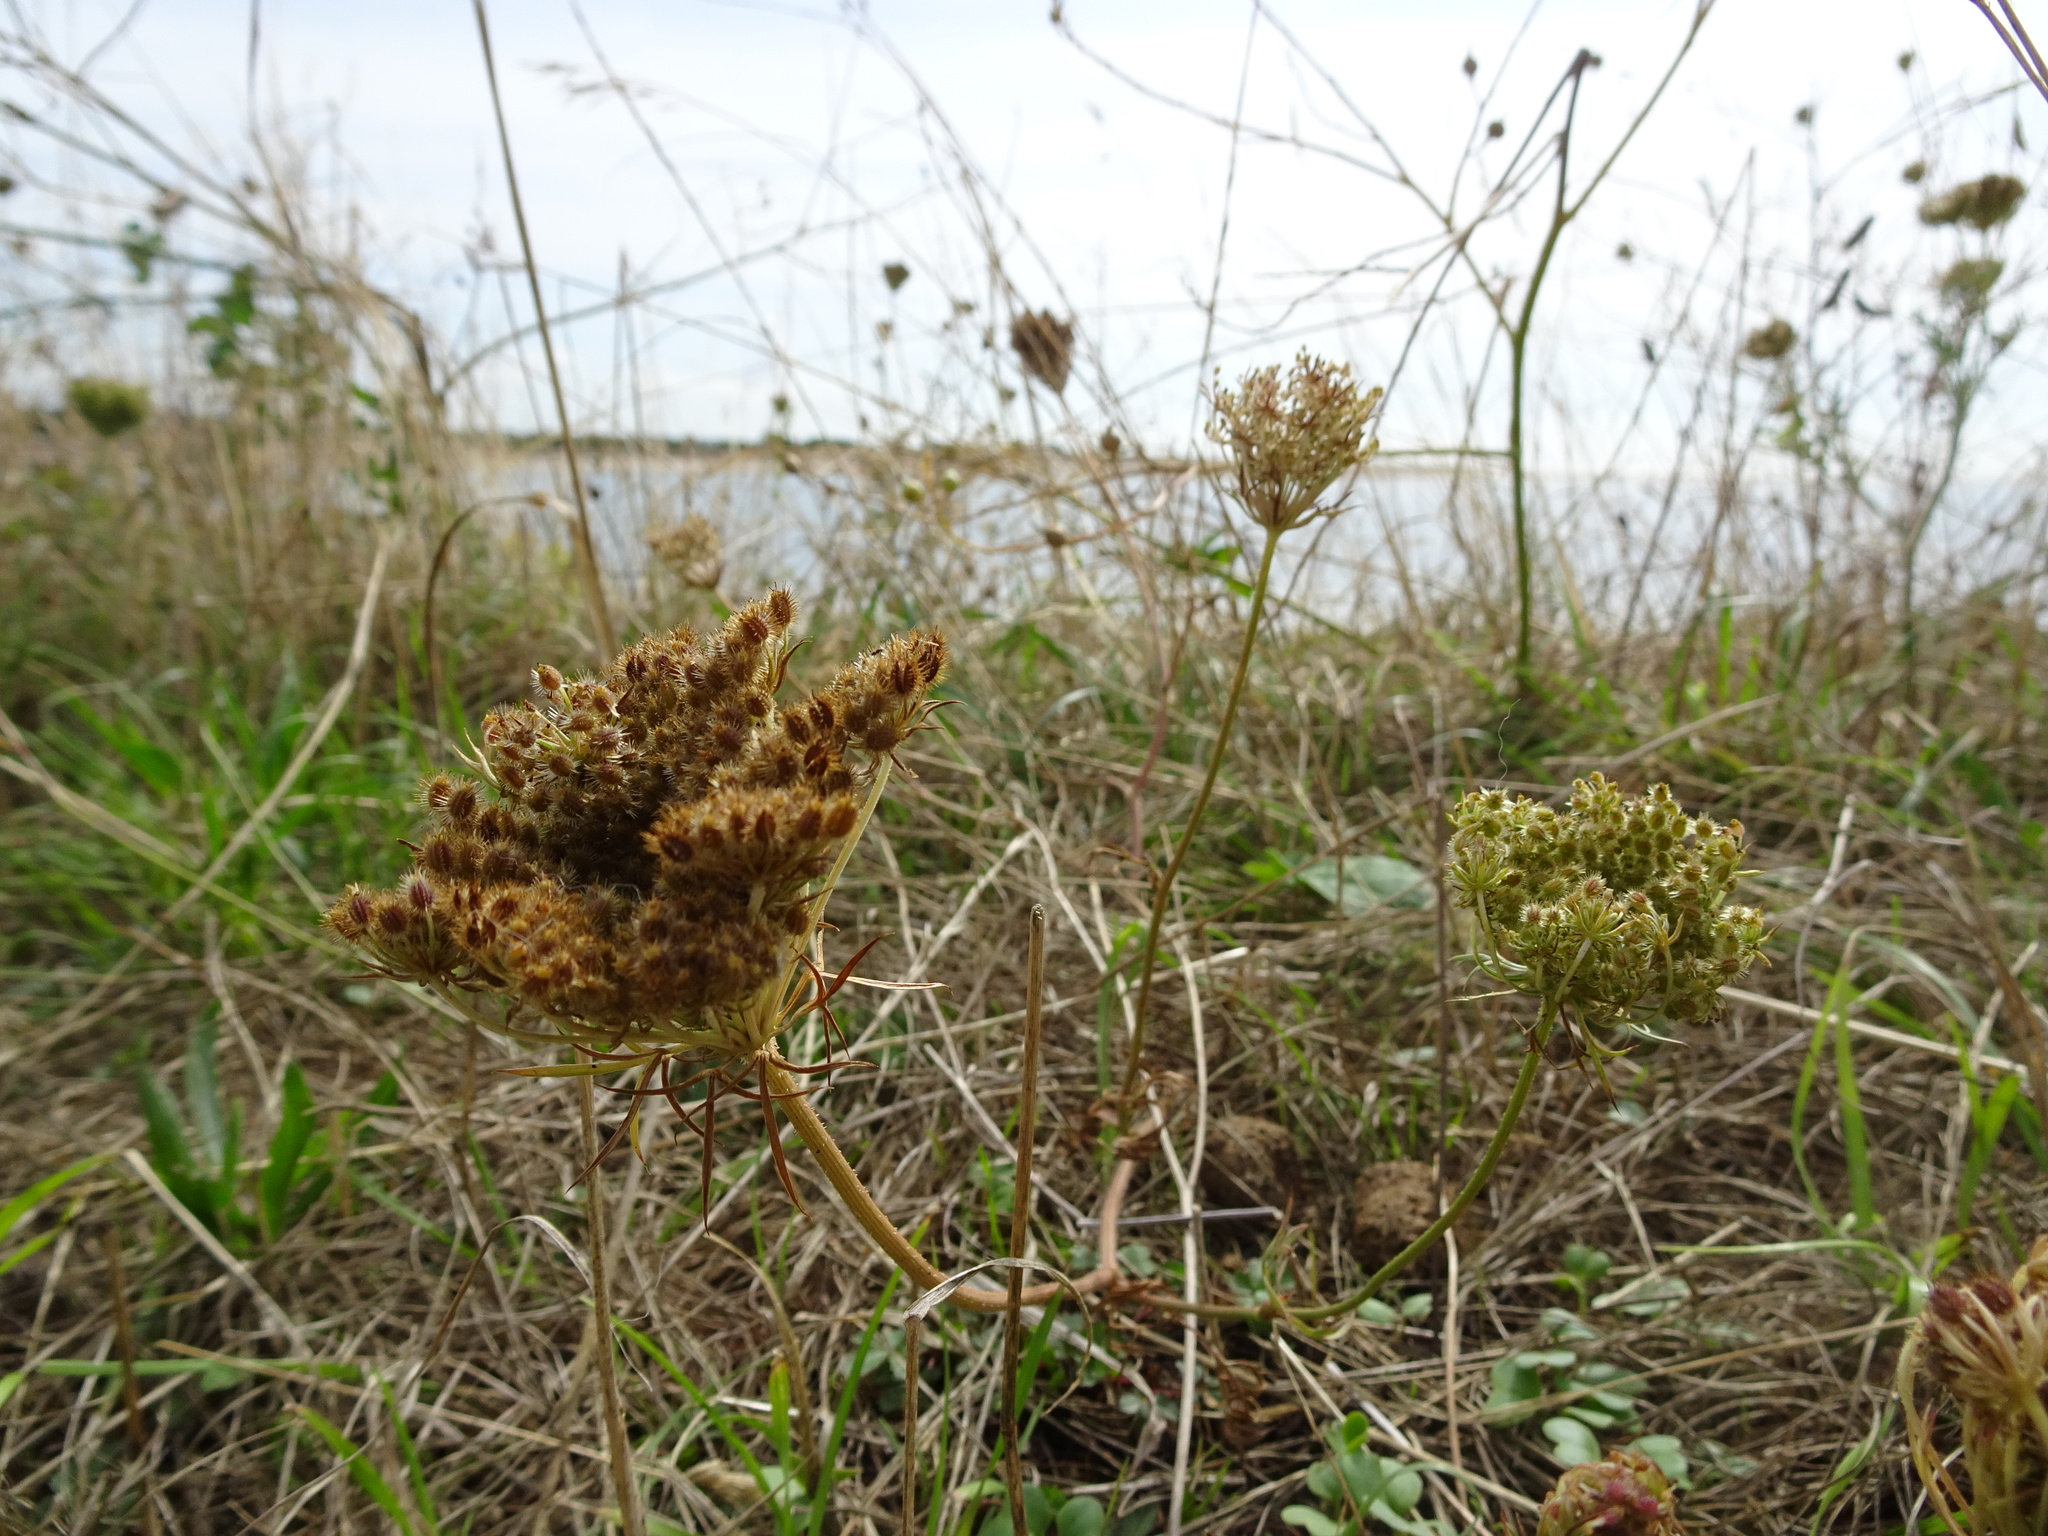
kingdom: Plantae
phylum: Tracheophyta
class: Magnoliopsida
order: Apiales
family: Apiaceae
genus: Daucus
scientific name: Daucus carota
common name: Wild carrot
